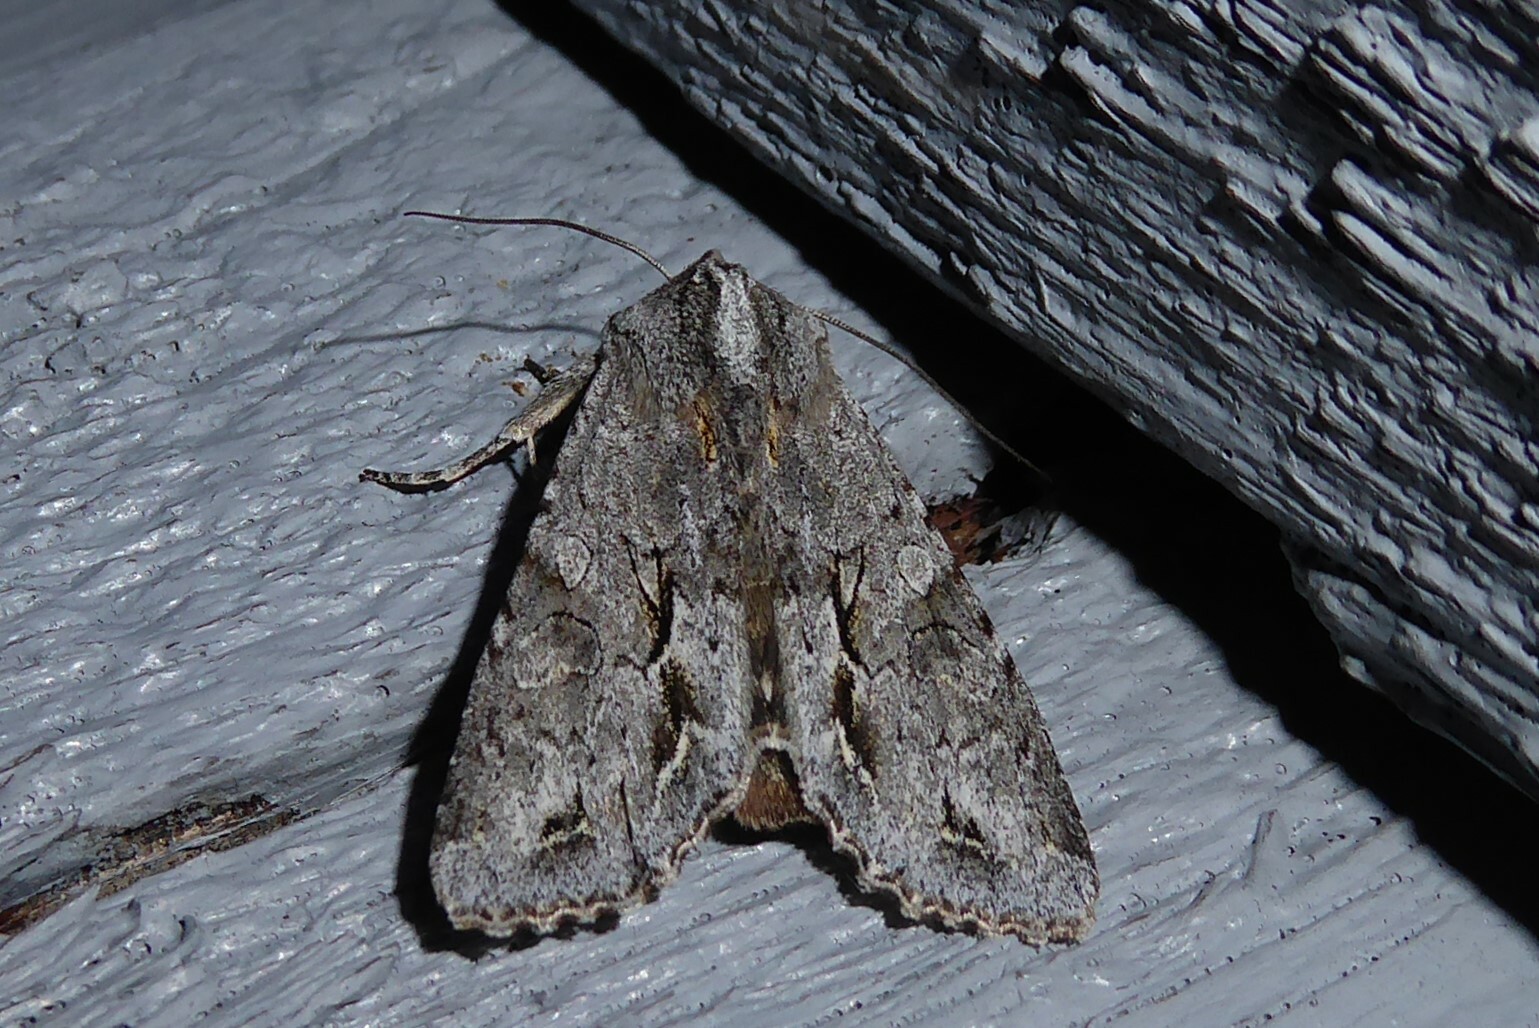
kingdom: Animalia
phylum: Arthropoda
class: Insecta
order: Lepidoptera
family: Noctuidae
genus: Ichneutica
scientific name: Ichneutica
